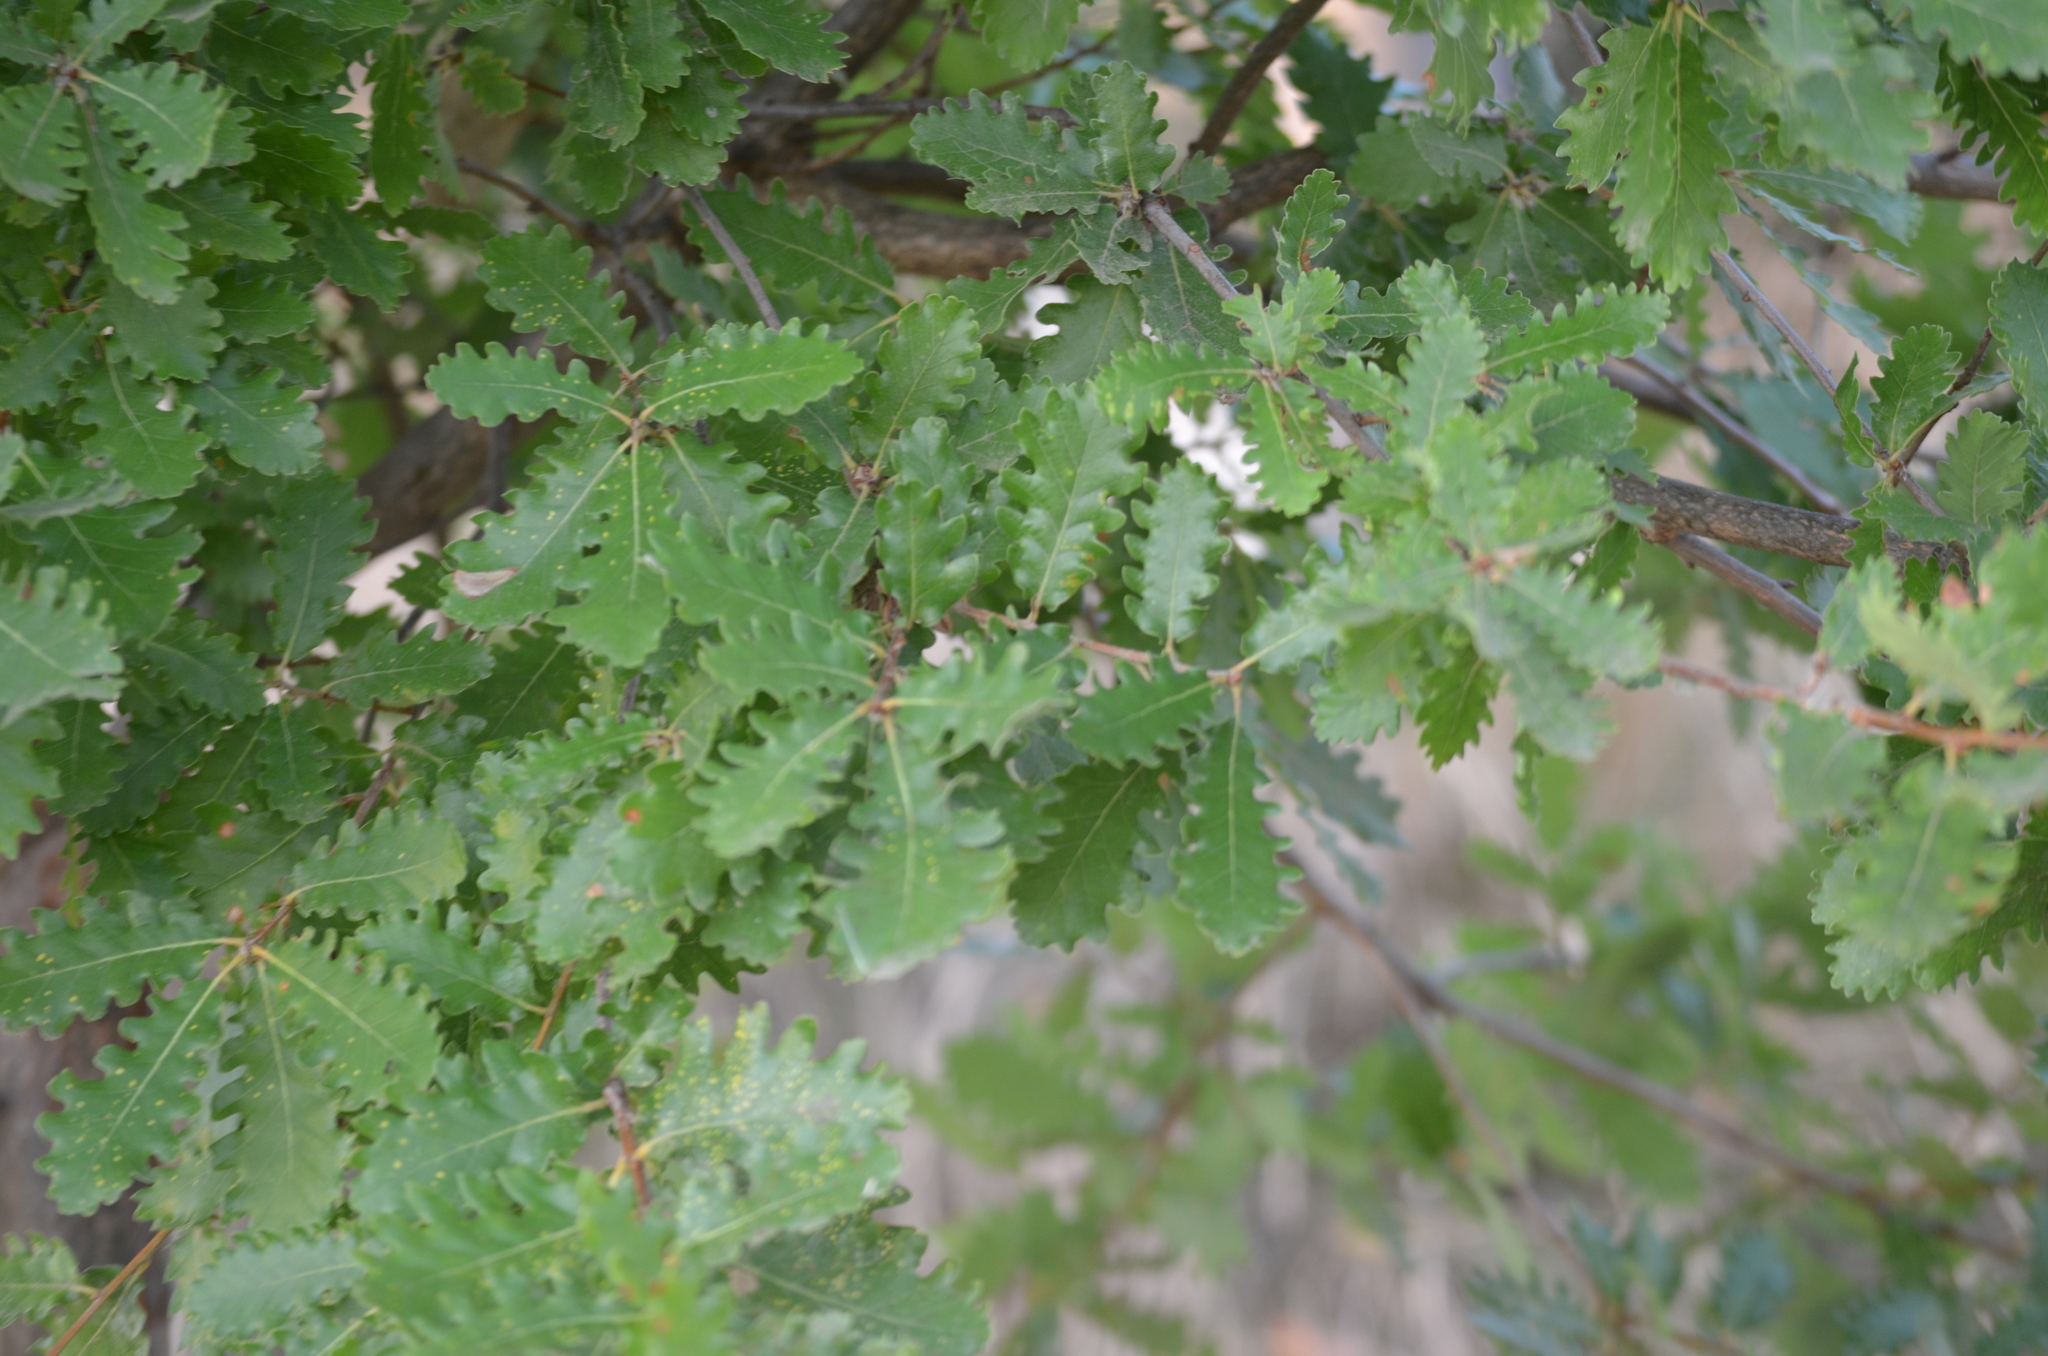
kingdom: Plantae
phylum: Tracheophyta
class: Magnoliopsida
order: Fagales
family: Fagaceae
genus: Quercus
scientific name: Quercus petraea
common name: Sessile oak
